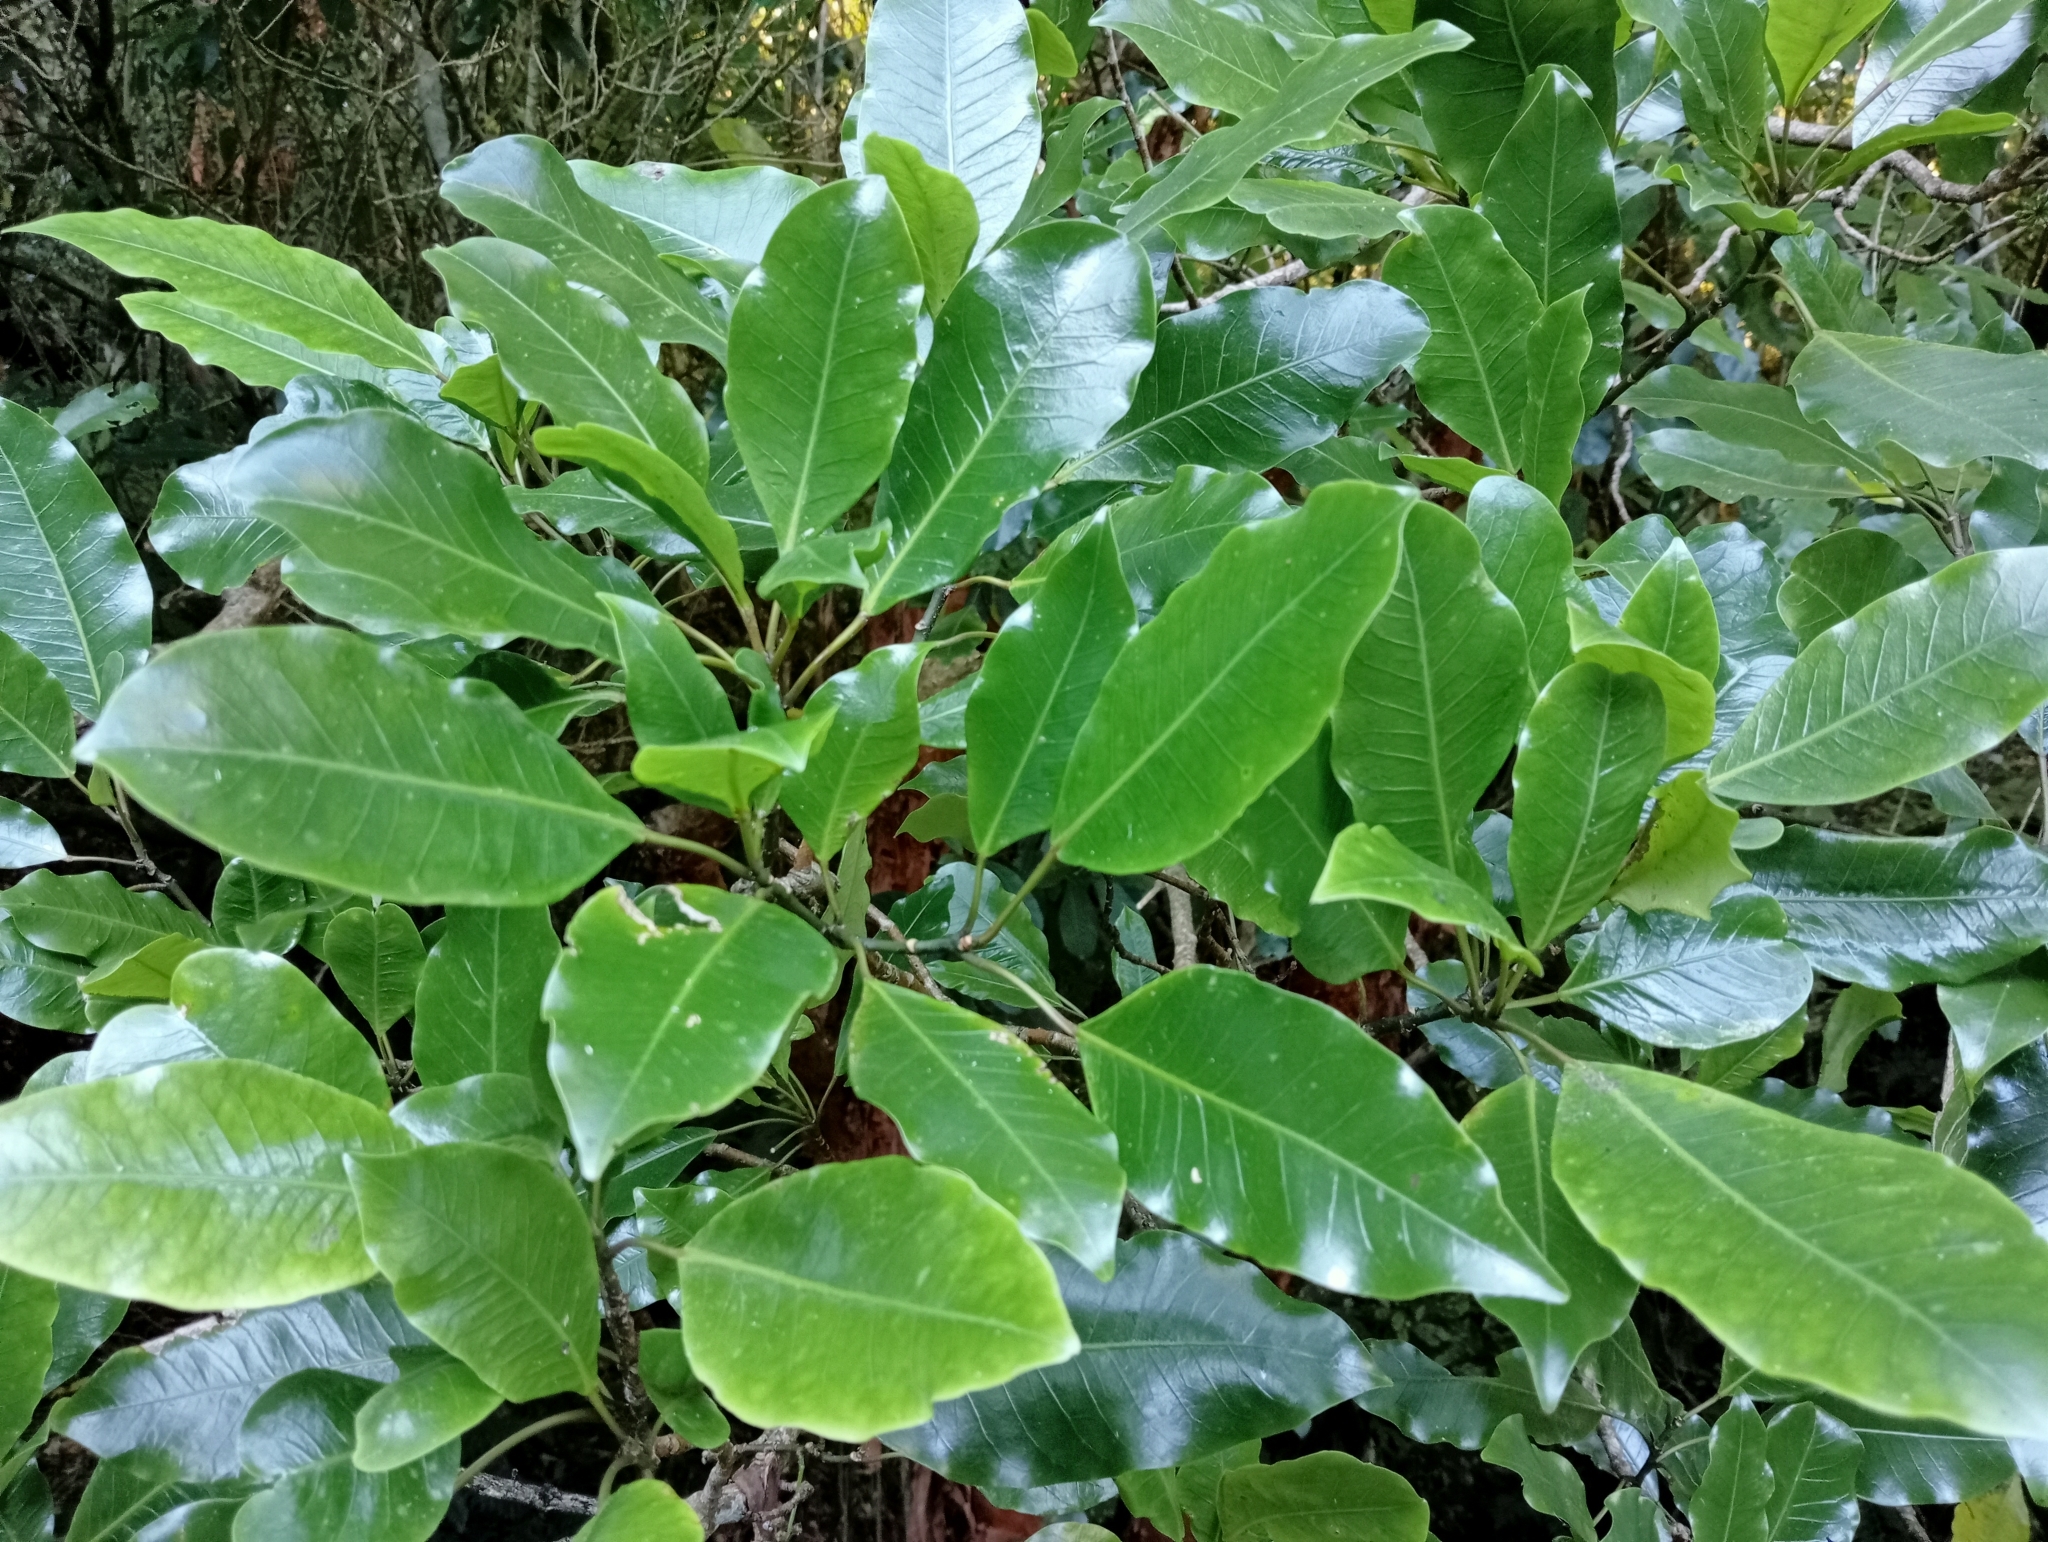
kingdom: Plantae
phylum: Tracheophyta
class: Magnoliopsida
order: Apiales
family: Araliaceae
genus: Raukaua
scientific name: Raukaua edgerleyi
